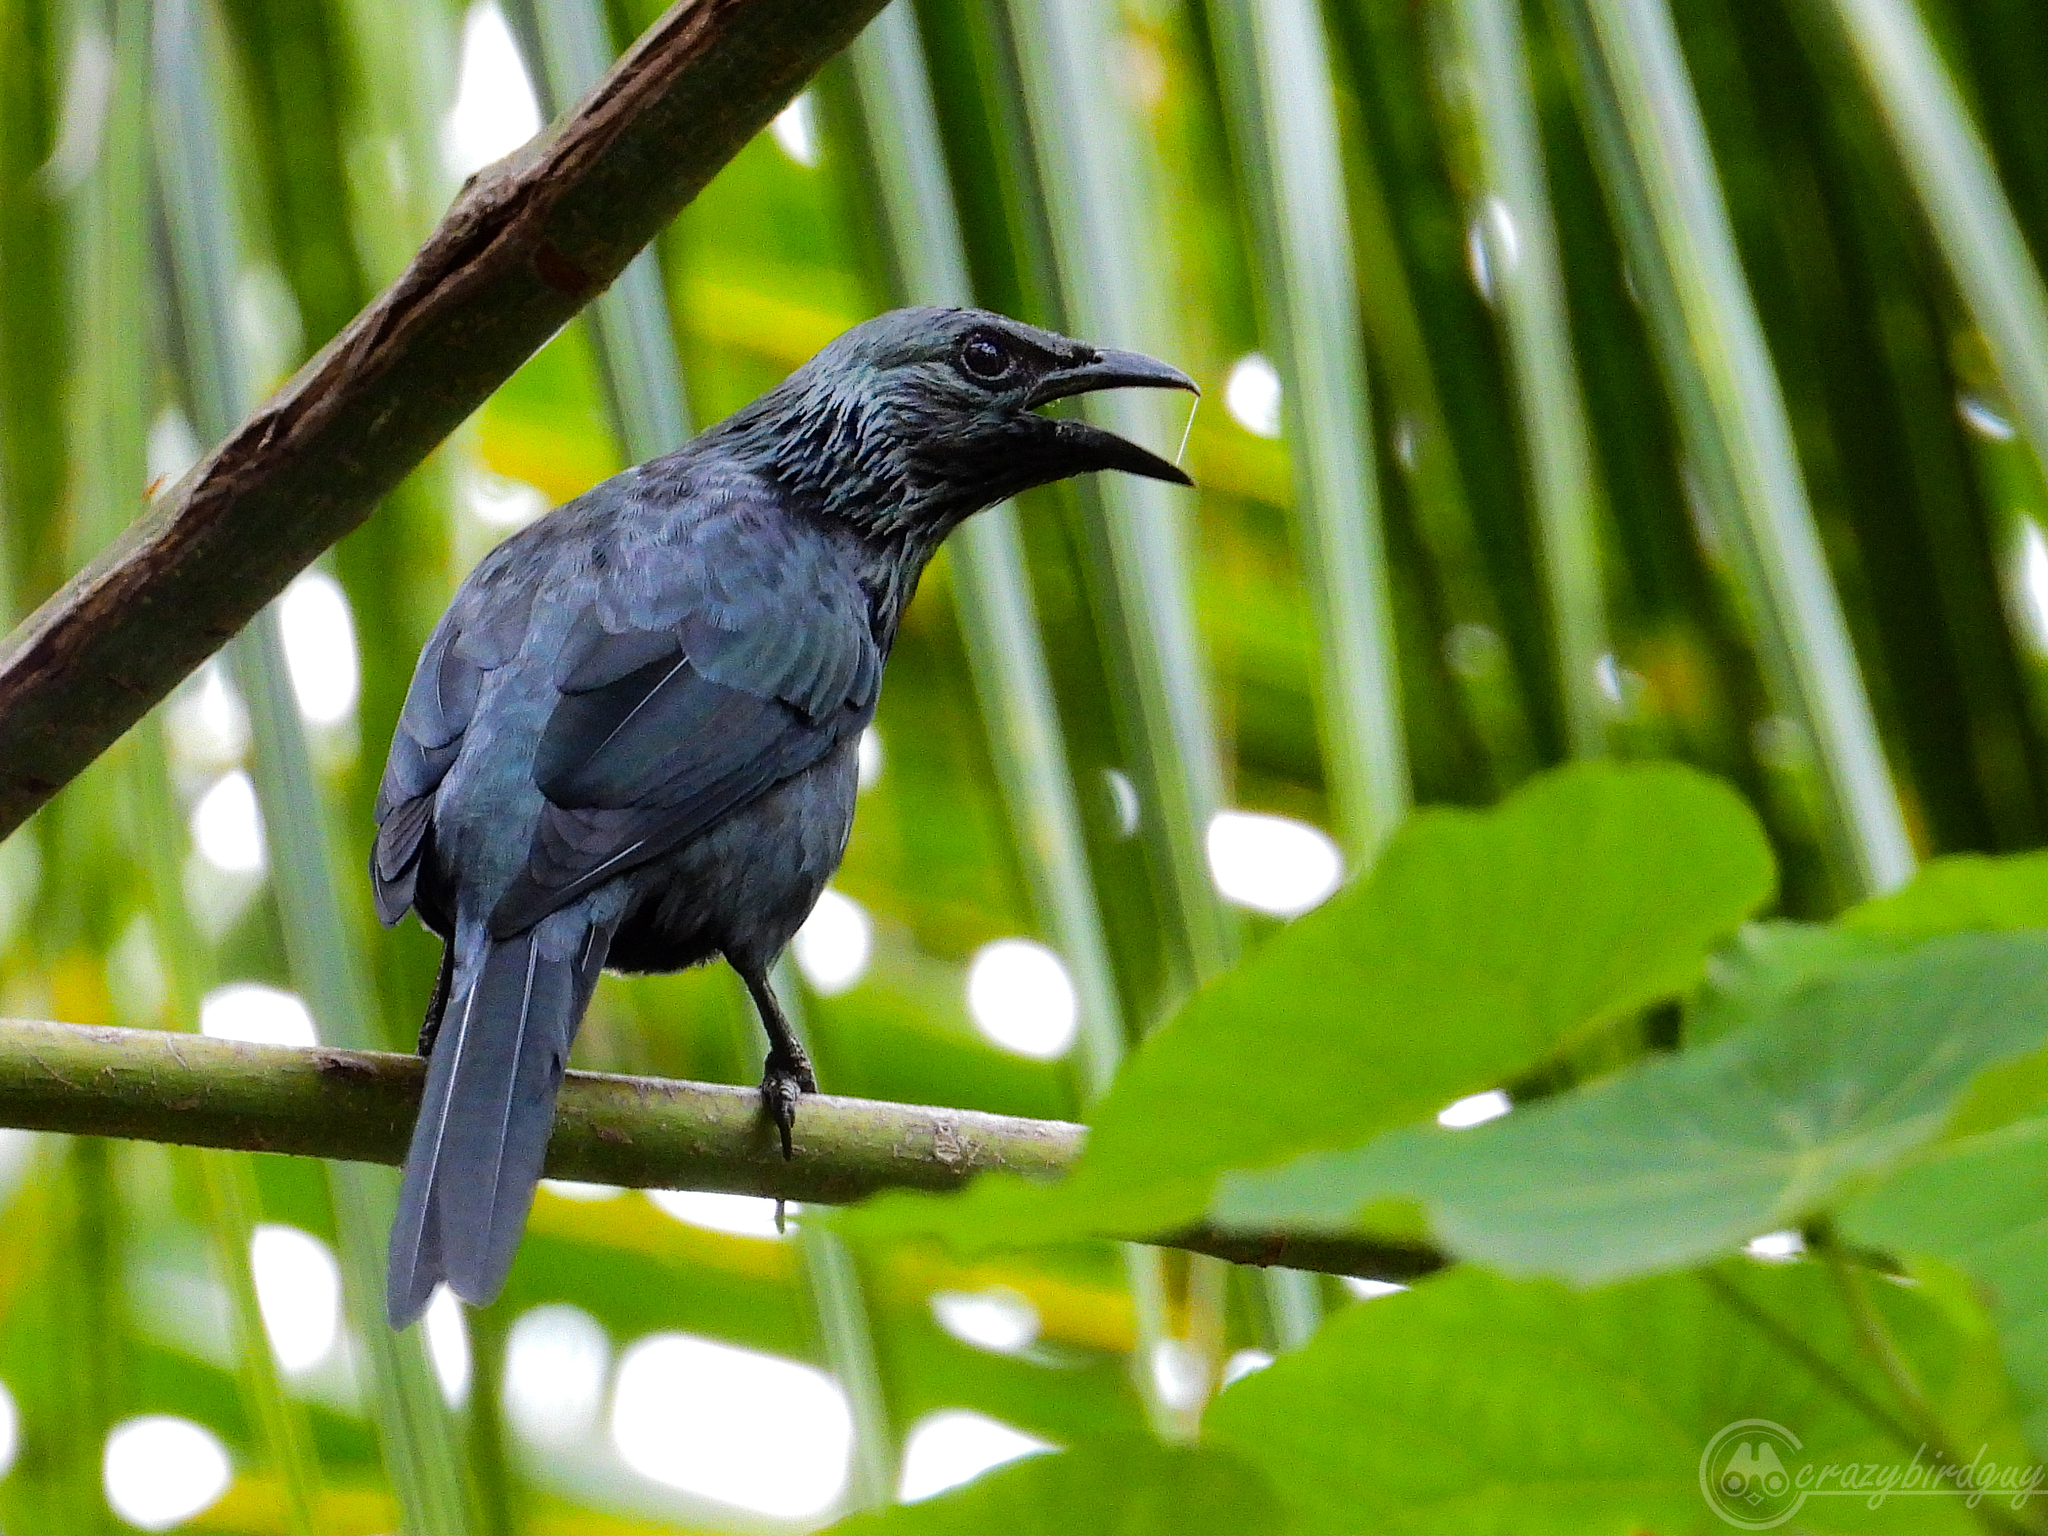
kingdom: Animalia
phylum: Chordata
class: Aves
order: Passeriformes
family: Sturnidae
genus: Aplonis
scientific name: Aplonis mysolensis
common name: Moluccan starling
